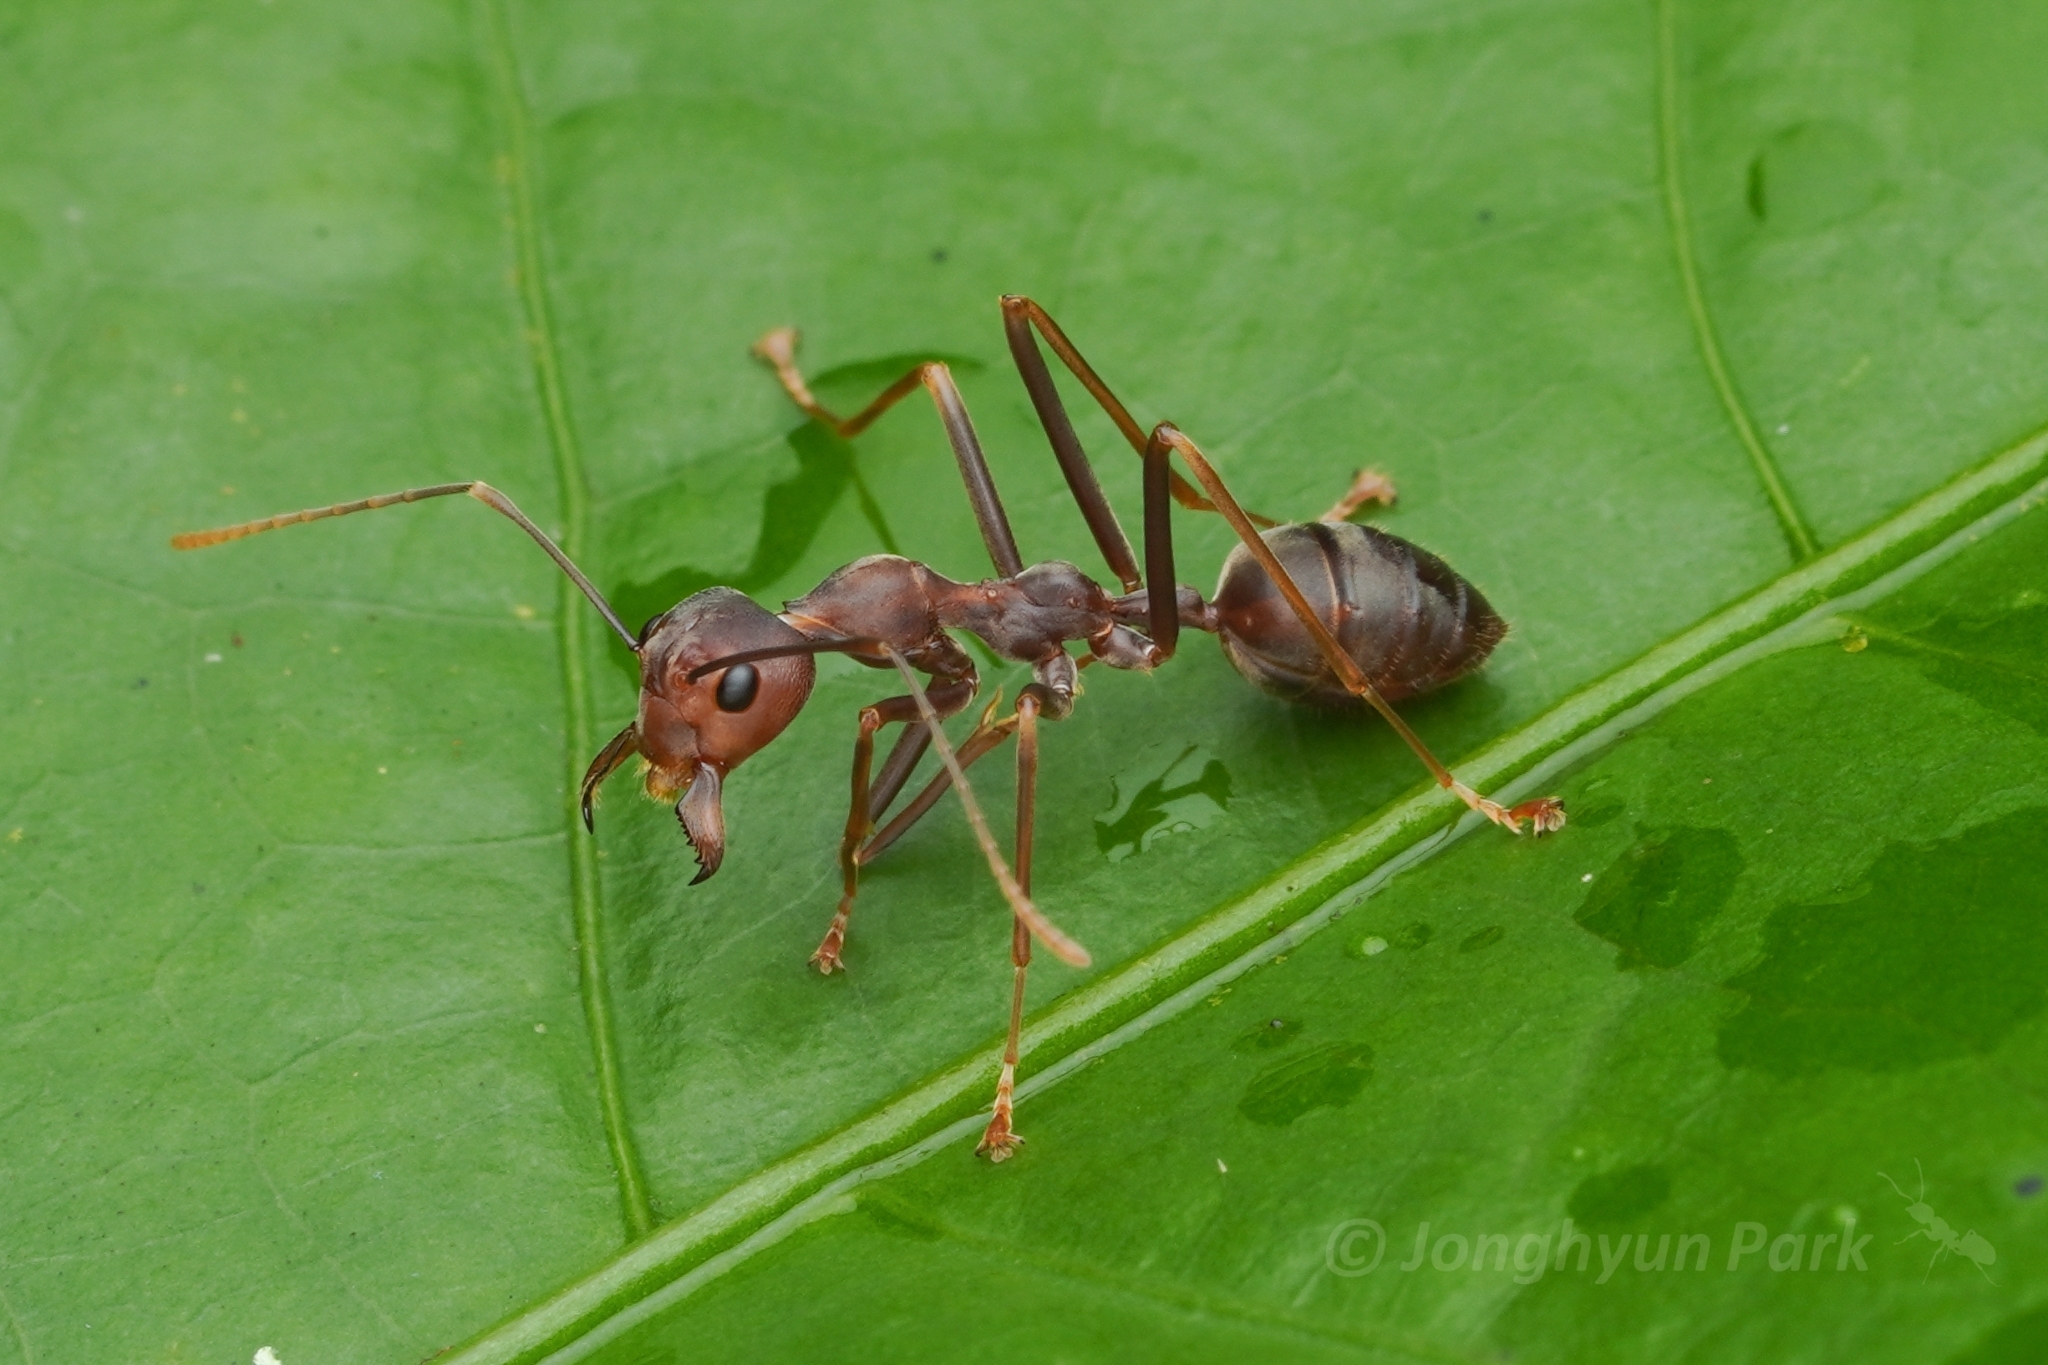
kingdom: Animalia
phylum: Arthropoda
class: Insecta
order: Hymenoptera
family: Formicidae
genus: Oecophylla
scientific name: Oecophylla smaragdina
